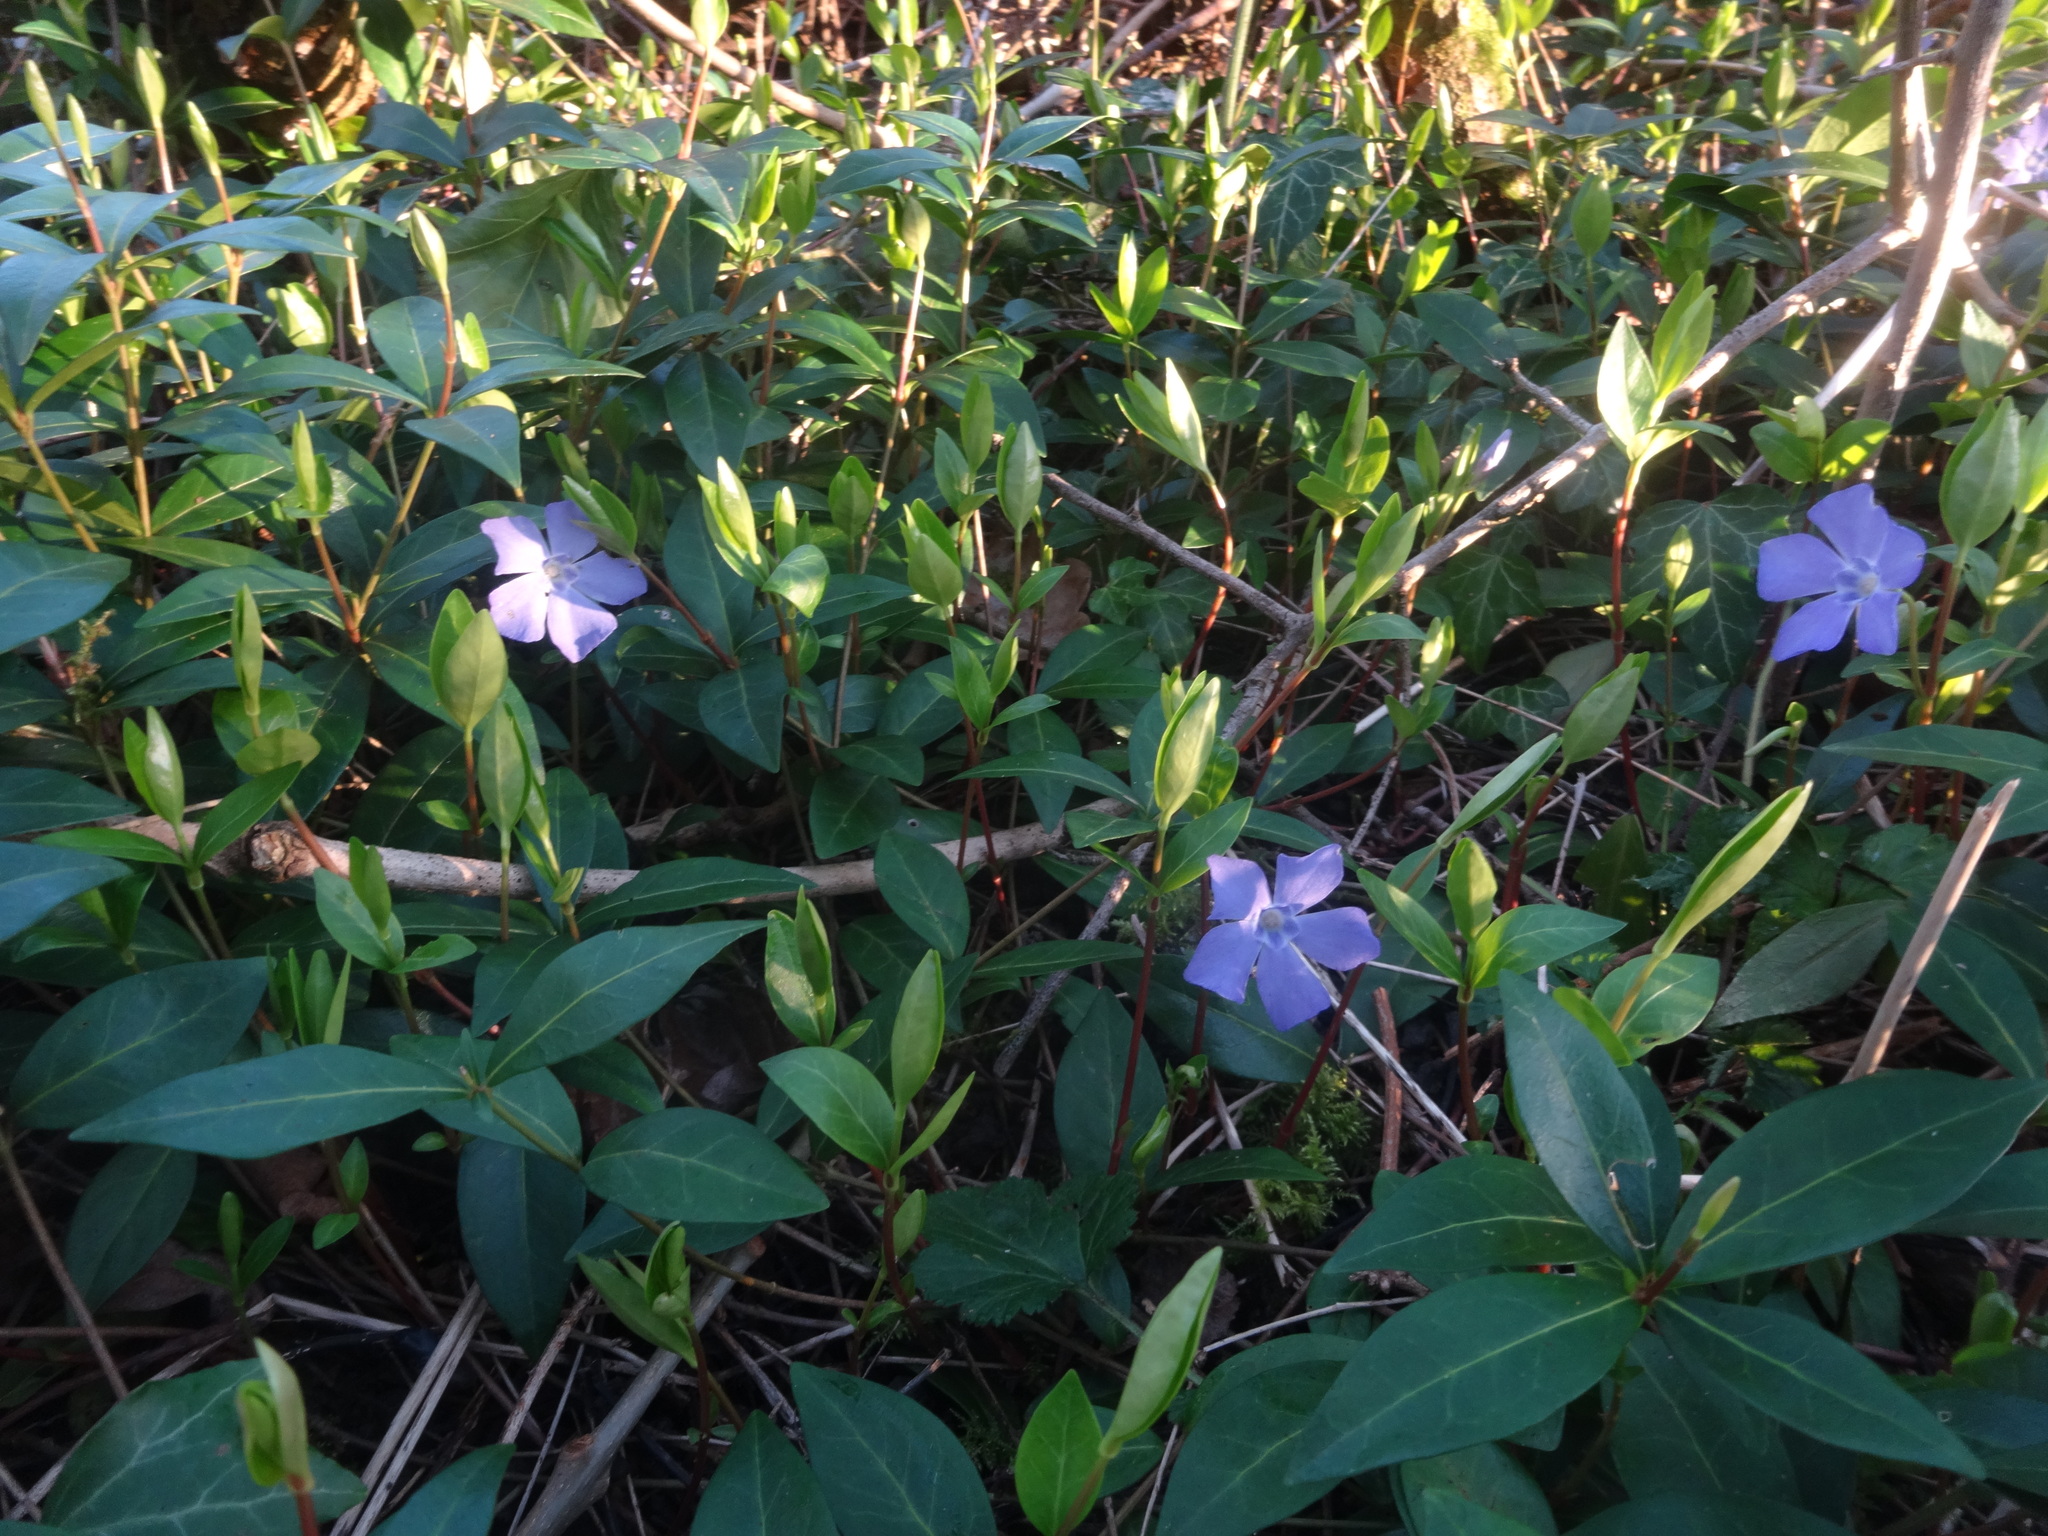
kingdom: Plantae
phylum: Tracheophyta
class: Magnoliopsida
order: Gentianales
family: Apocynaceae
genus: Vinca
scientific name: Vinca difformis
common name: Intermediate periwinkle
